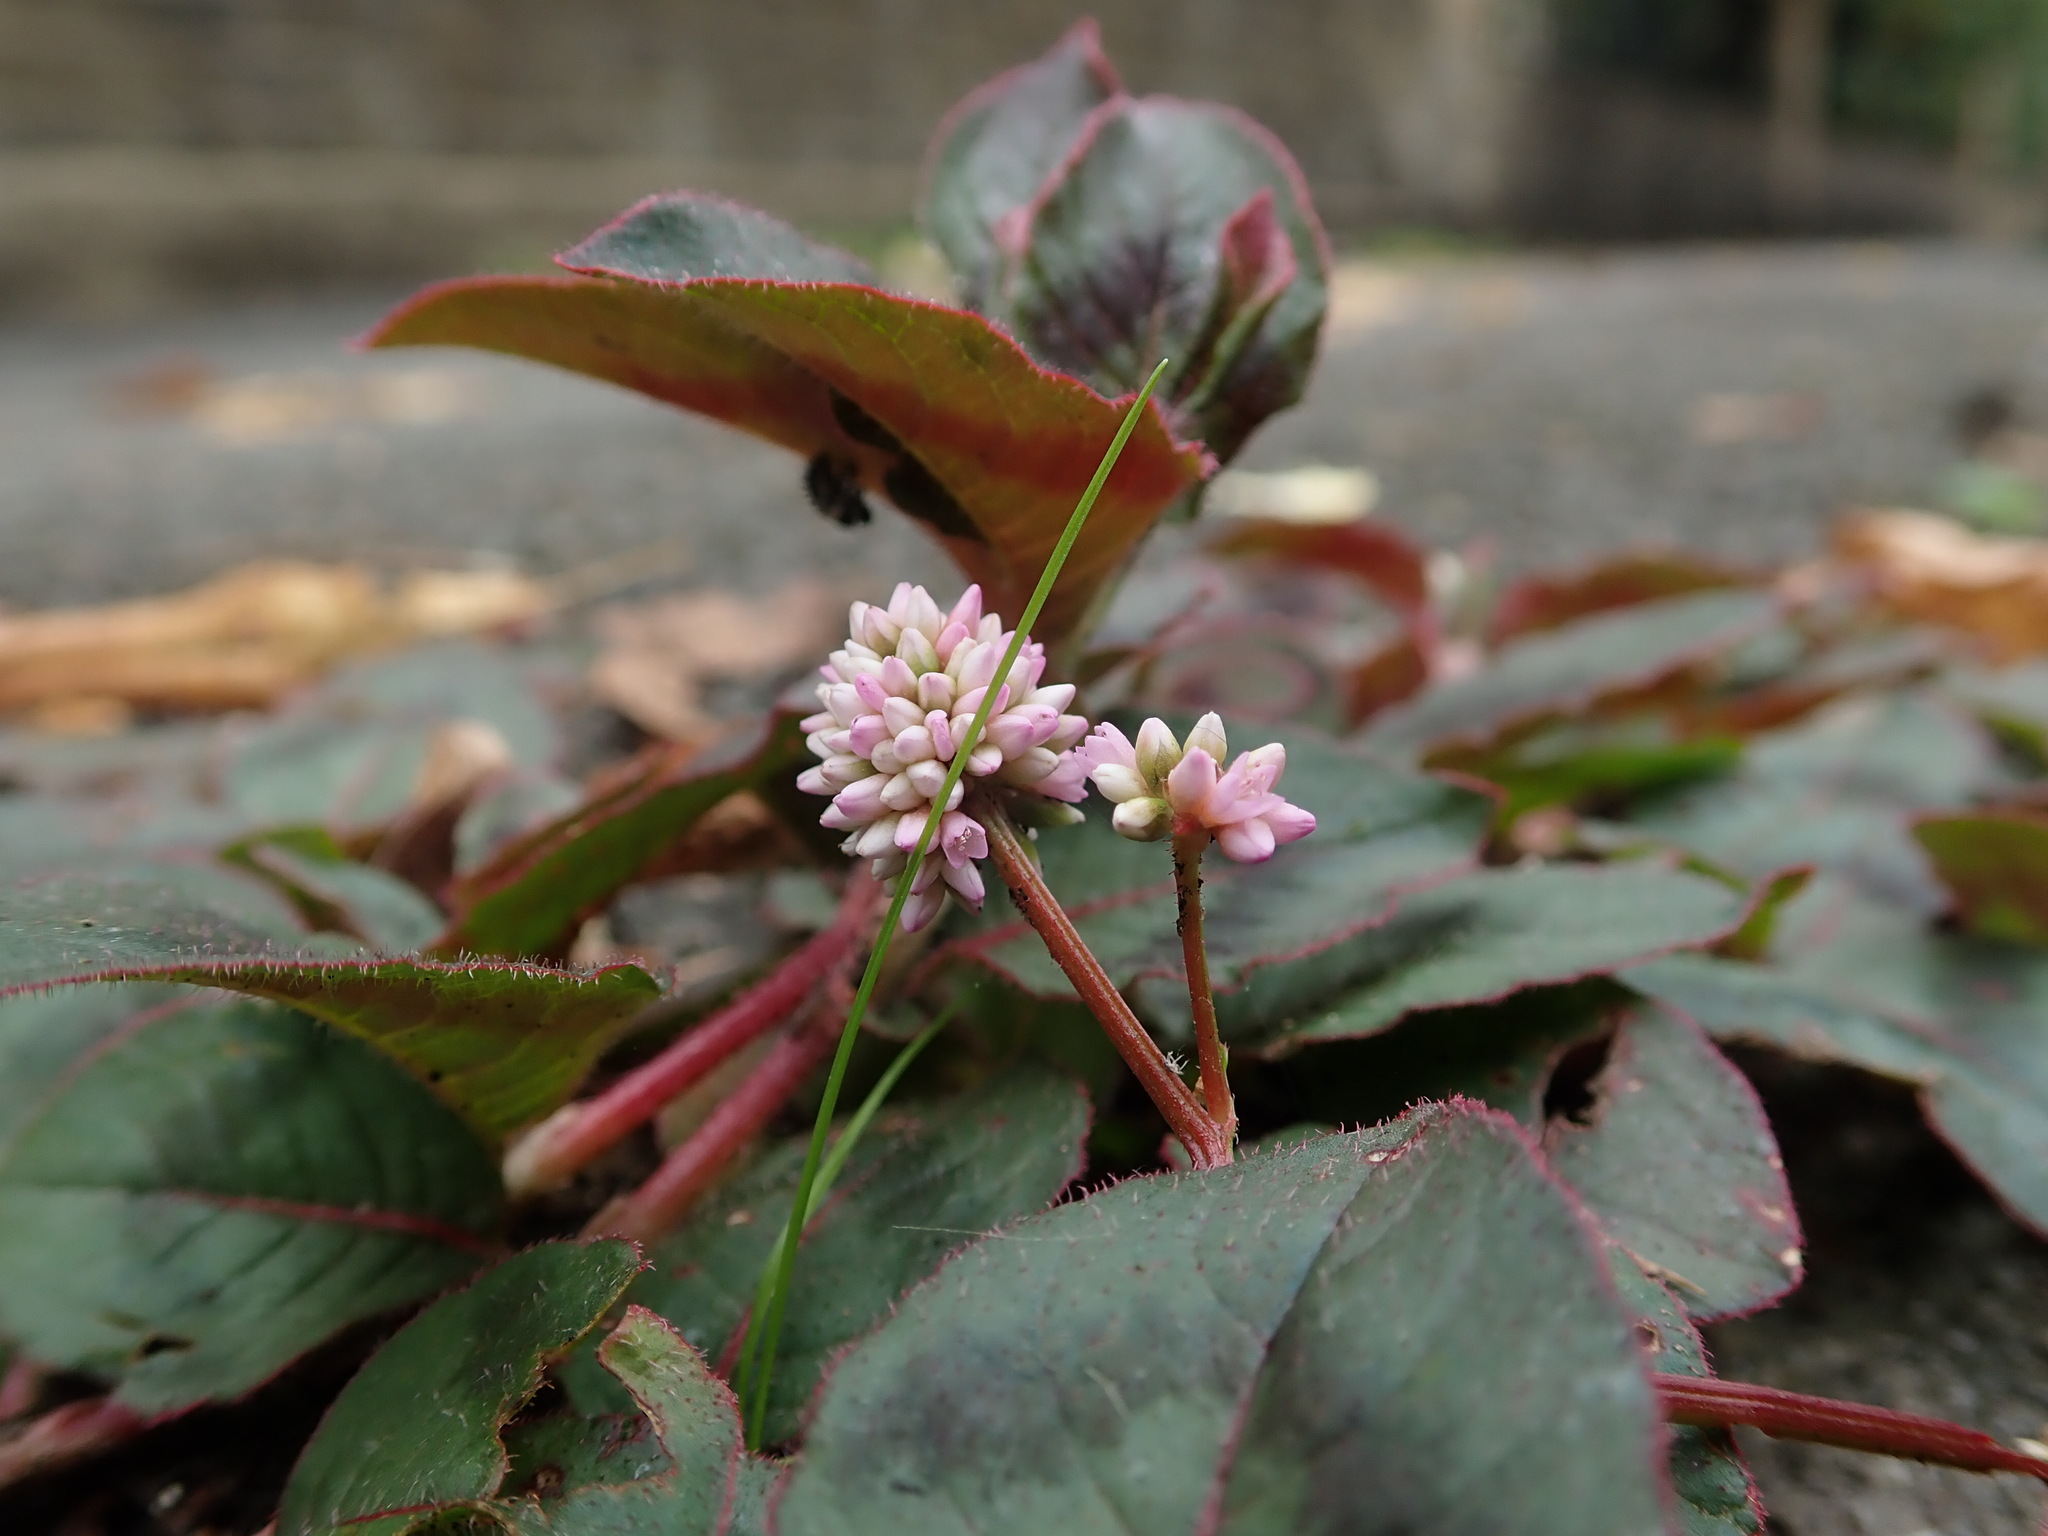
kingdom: Plantae
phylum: Tracheophyta
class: Magnoliopsida
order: Caryophyllales
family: Polygonaceae
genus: Persicaria
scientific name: Persicaria capitata
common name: Pinkhead smartweed
